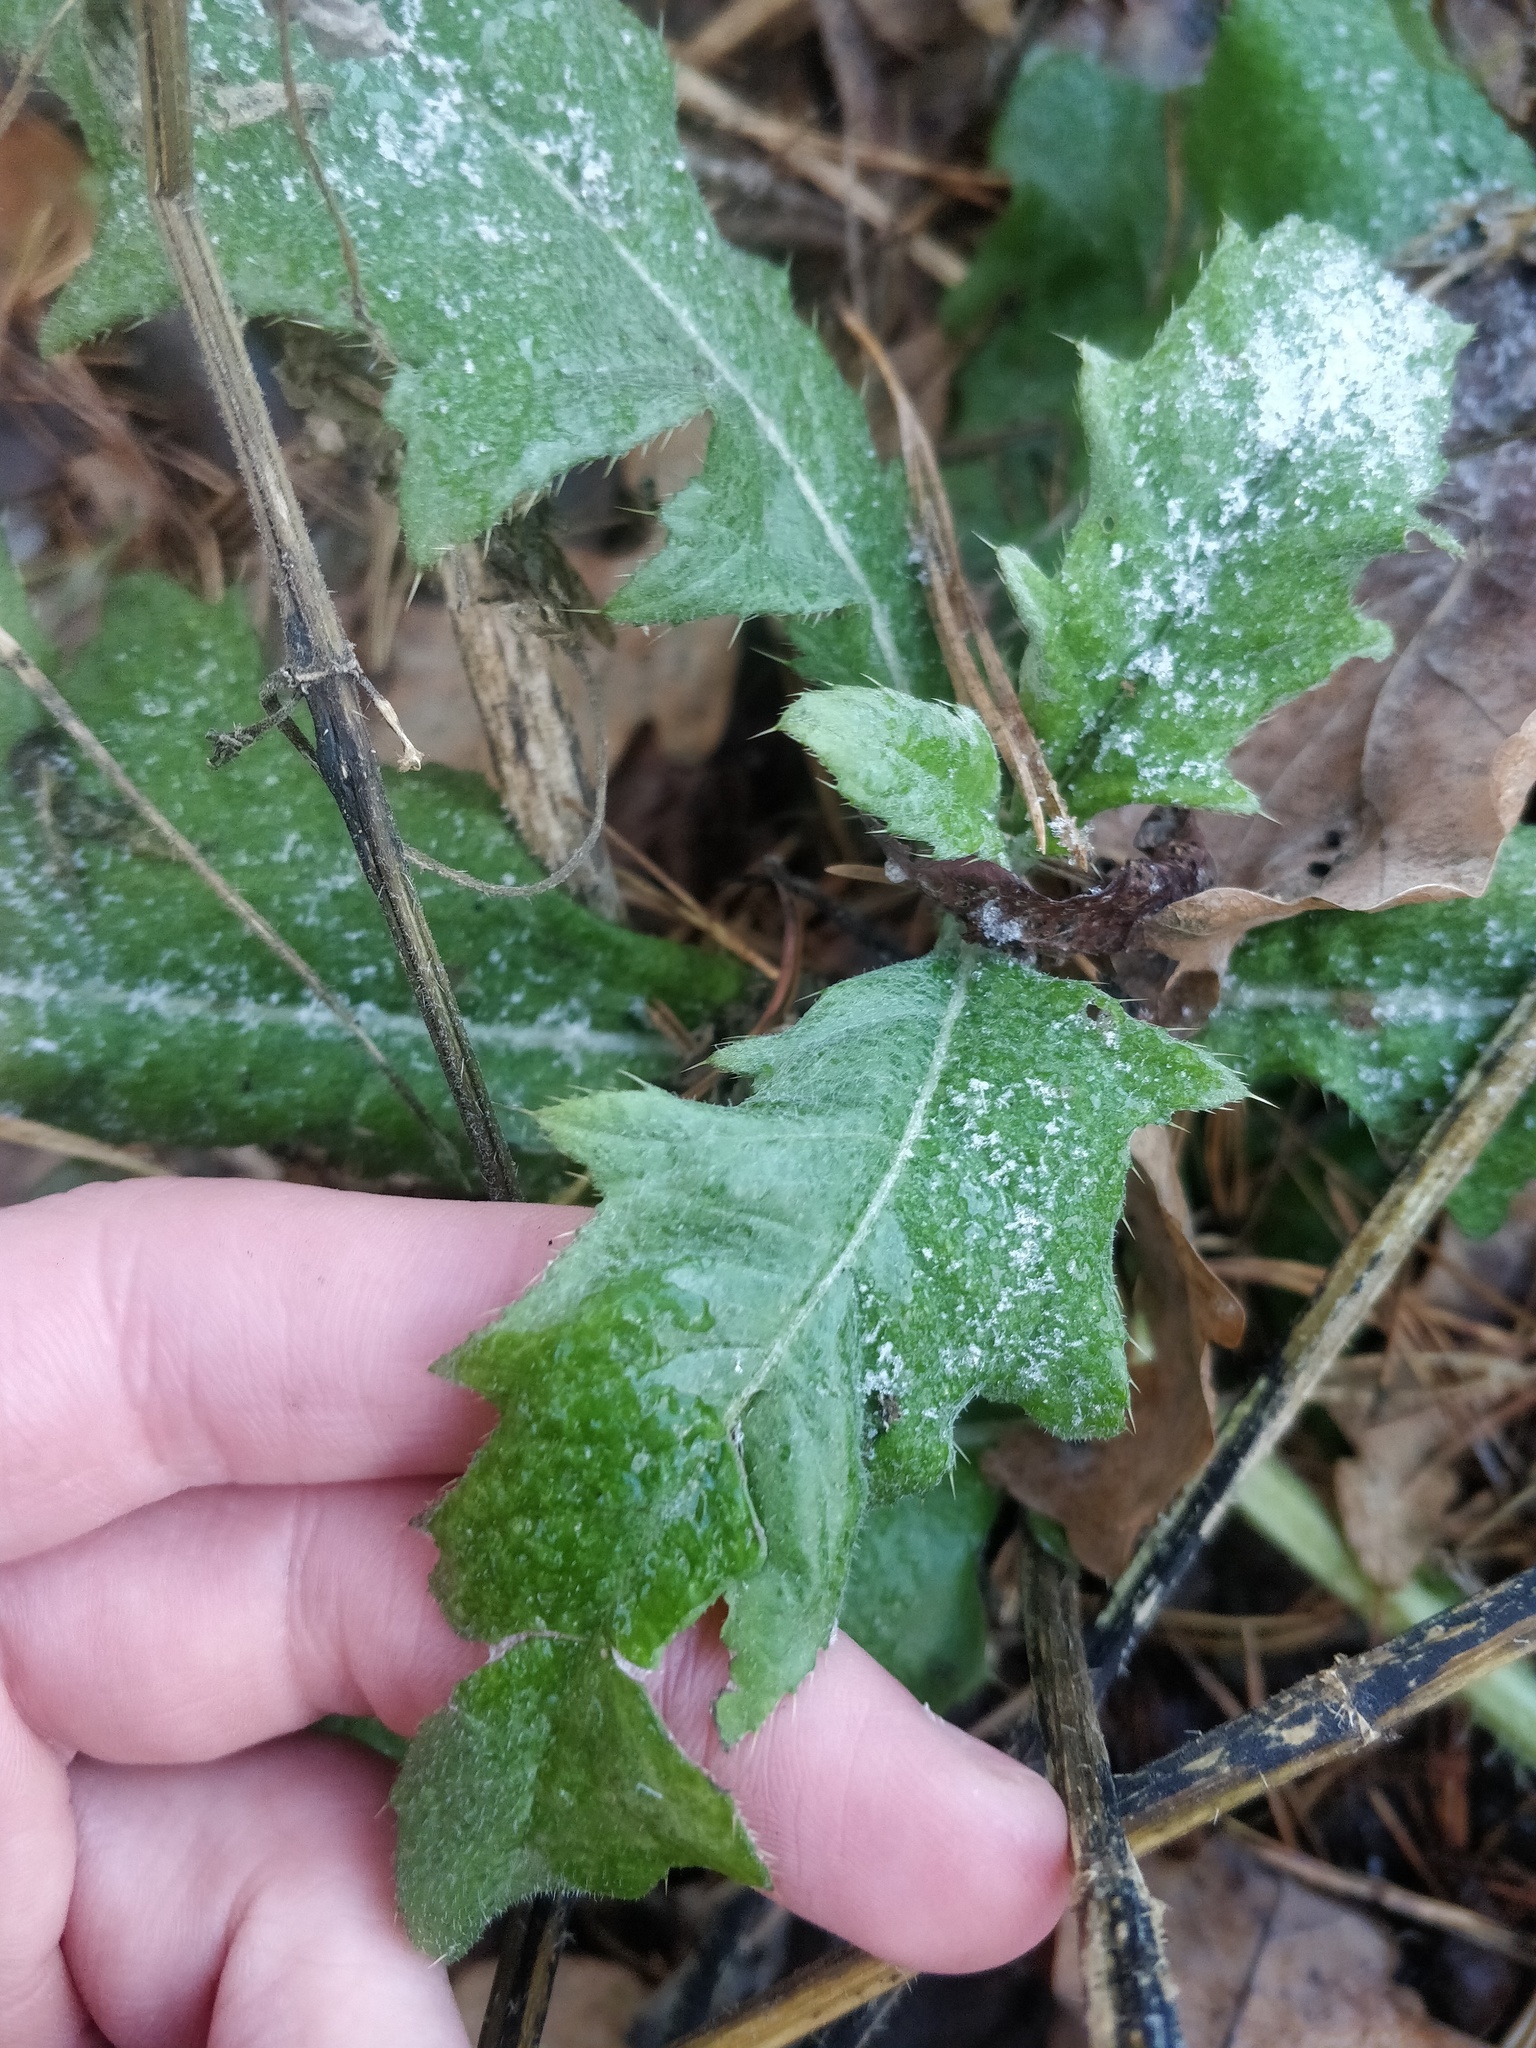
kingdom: Plantae
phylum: Tracheophyta
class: Magnoliopsida
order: Asterales
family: Asteraceae
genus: Cirsium
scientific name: Cirsium arvense
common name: Creeping thistle
